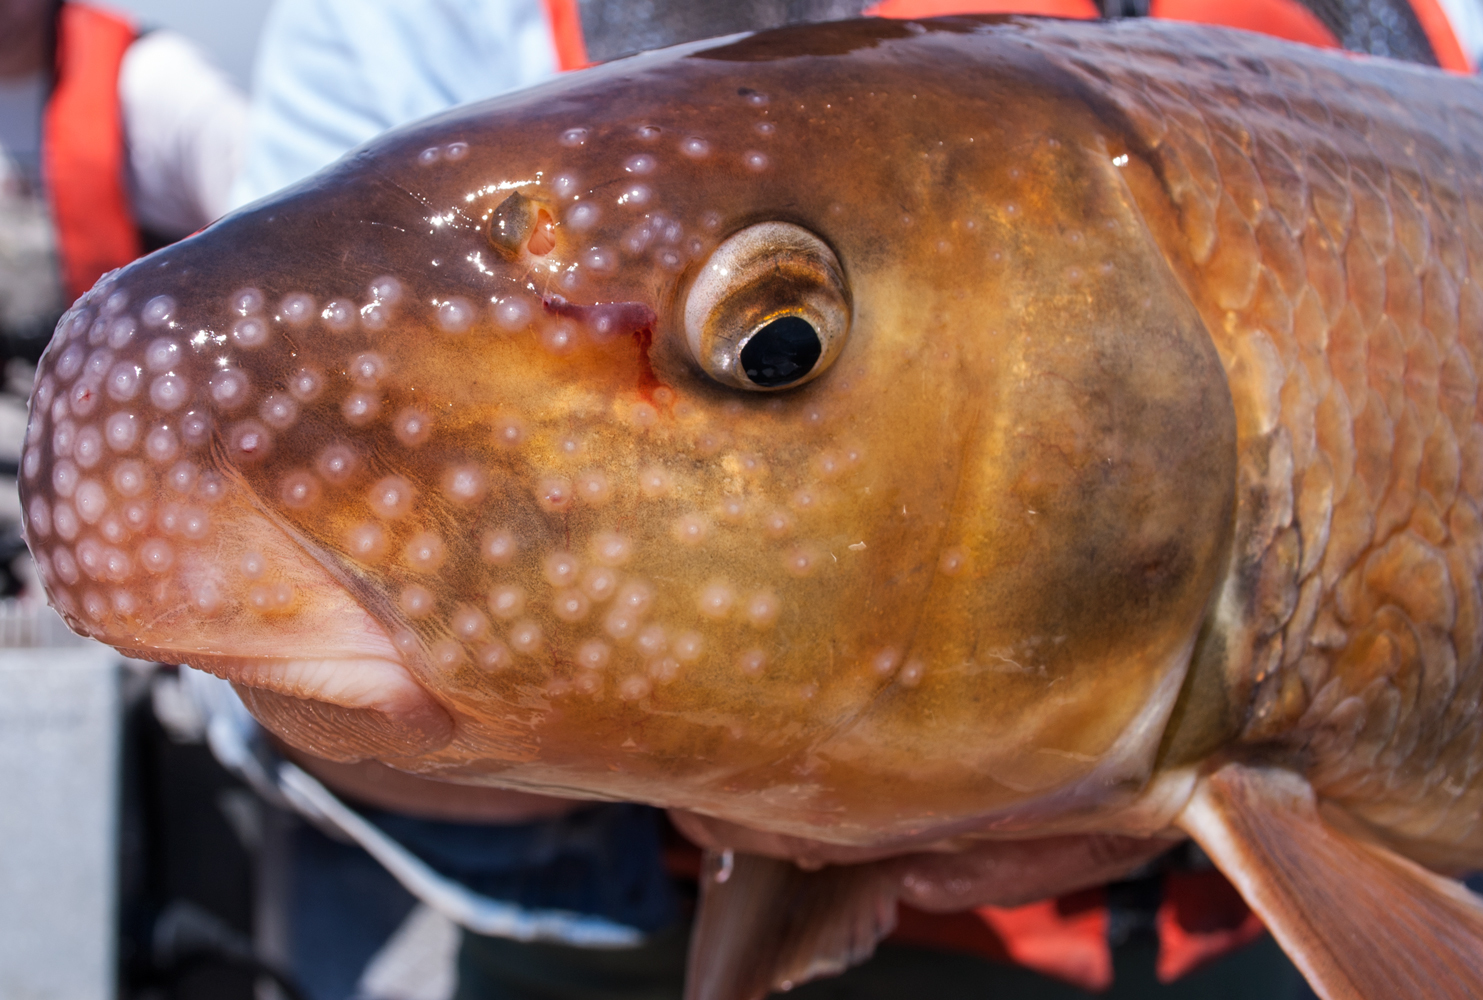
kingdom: Animalia
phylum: Chordata
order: Cypriniformes
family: Catostomidae
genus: Moxostoma
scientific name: Moxostoma carinatum
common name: River redhorse
